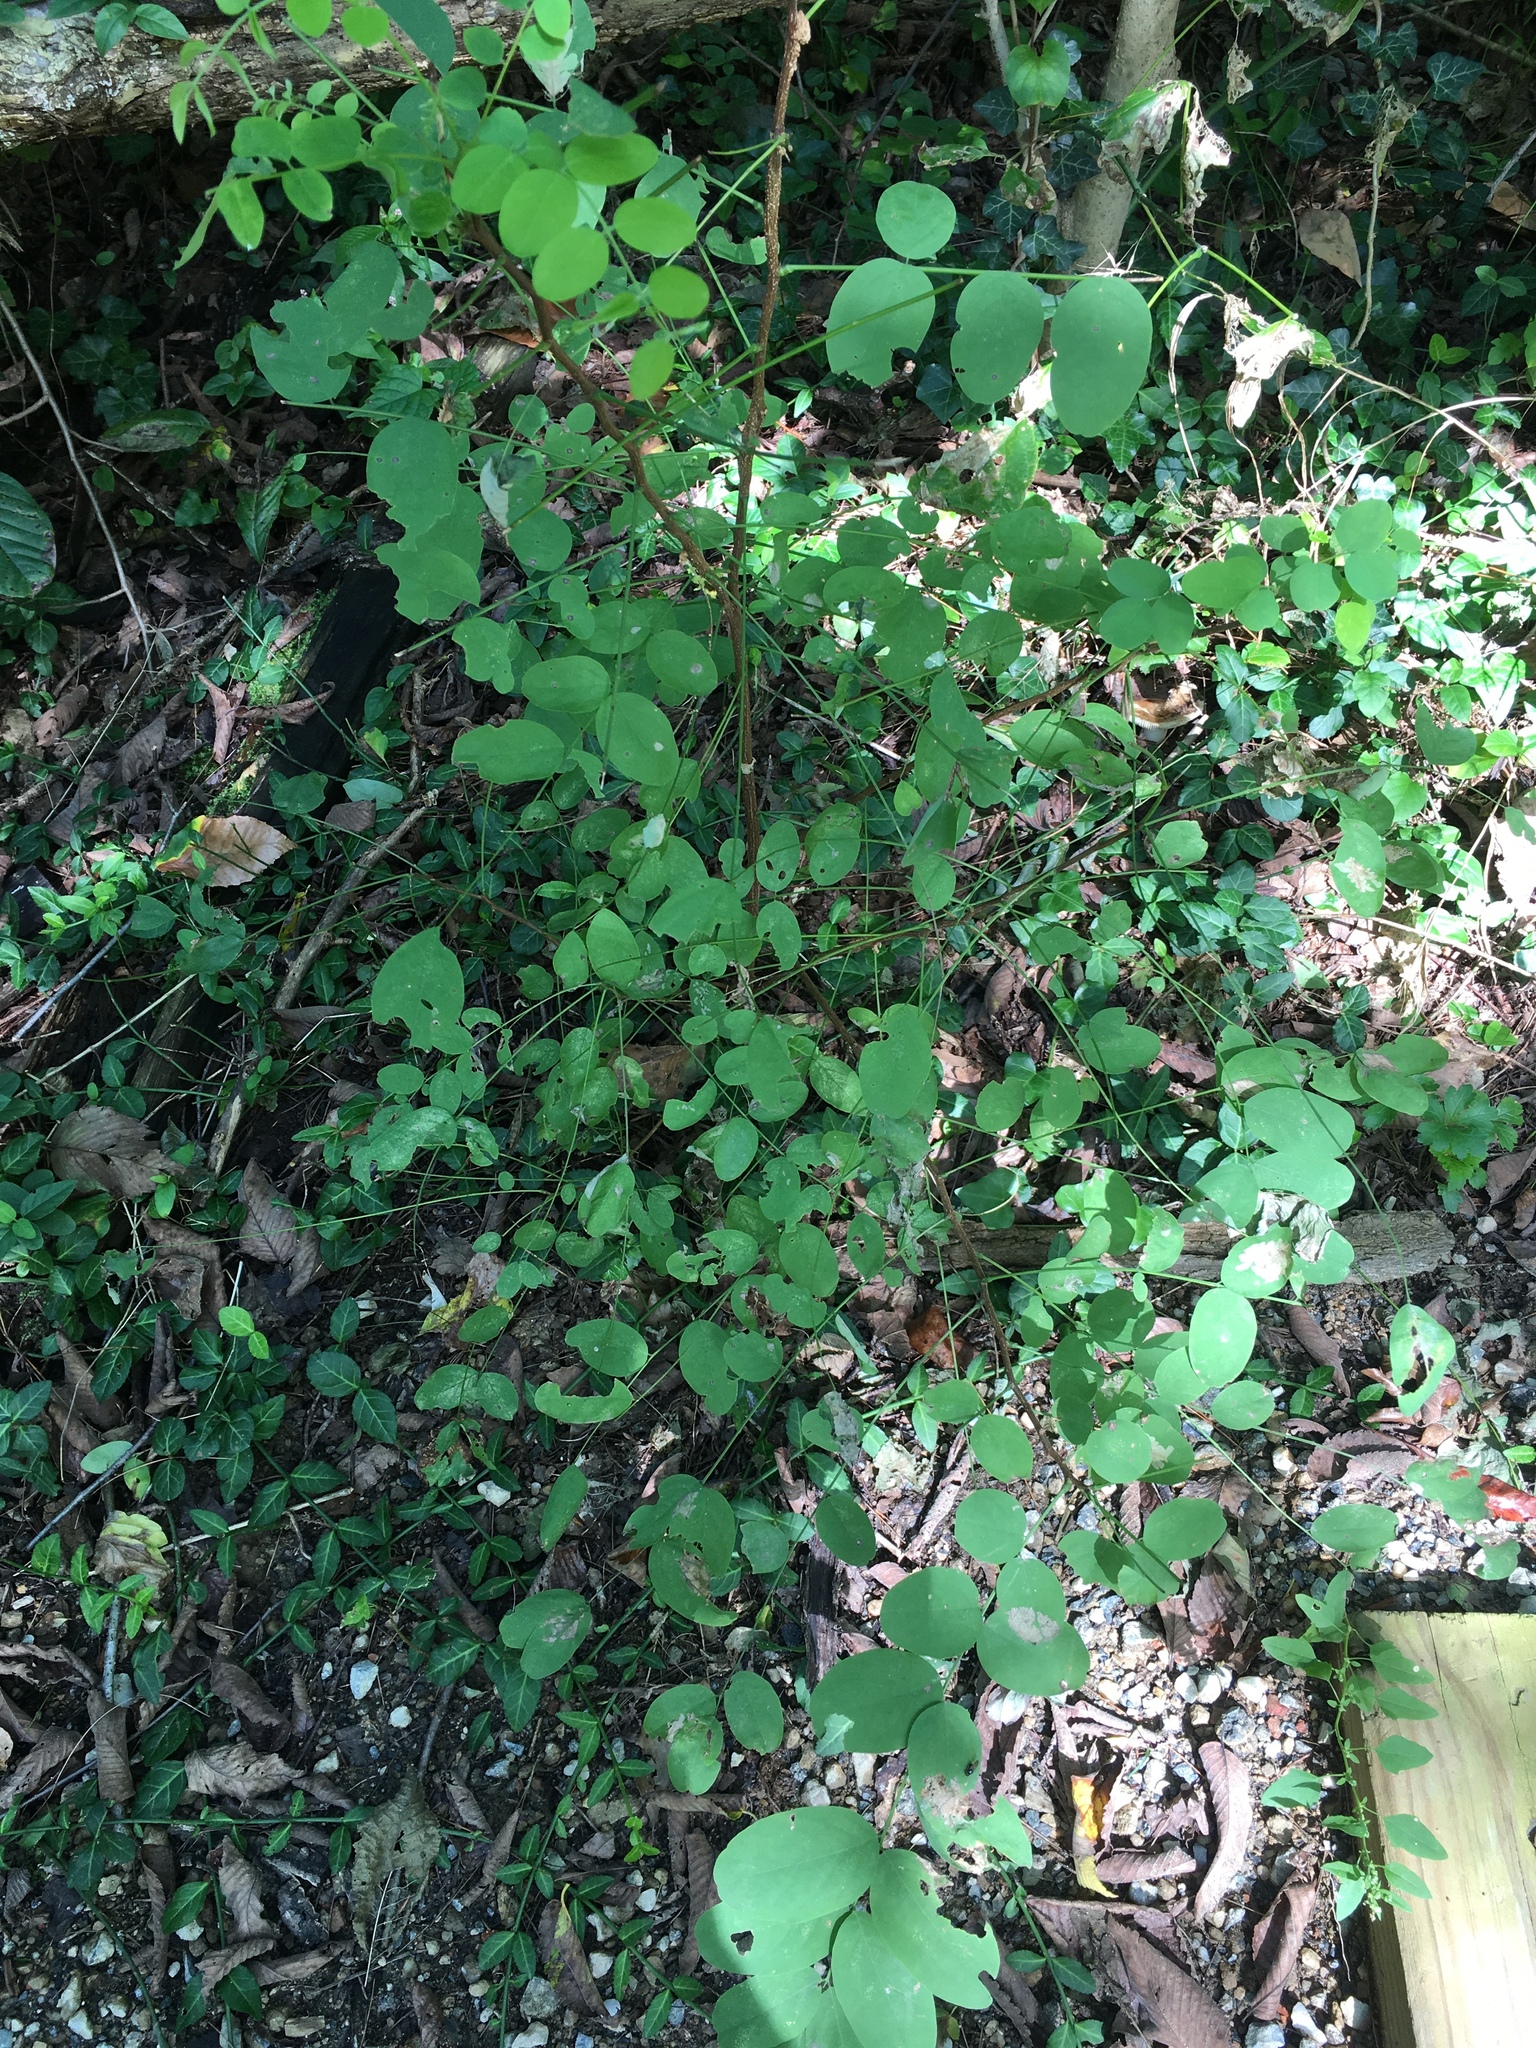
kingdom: Plantae
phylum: Tracheophyta
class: Magnoliopsida
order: Fabales
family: Fabaceae
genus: Robinia
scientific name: Robinia pseudoacacia
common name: Black locust
